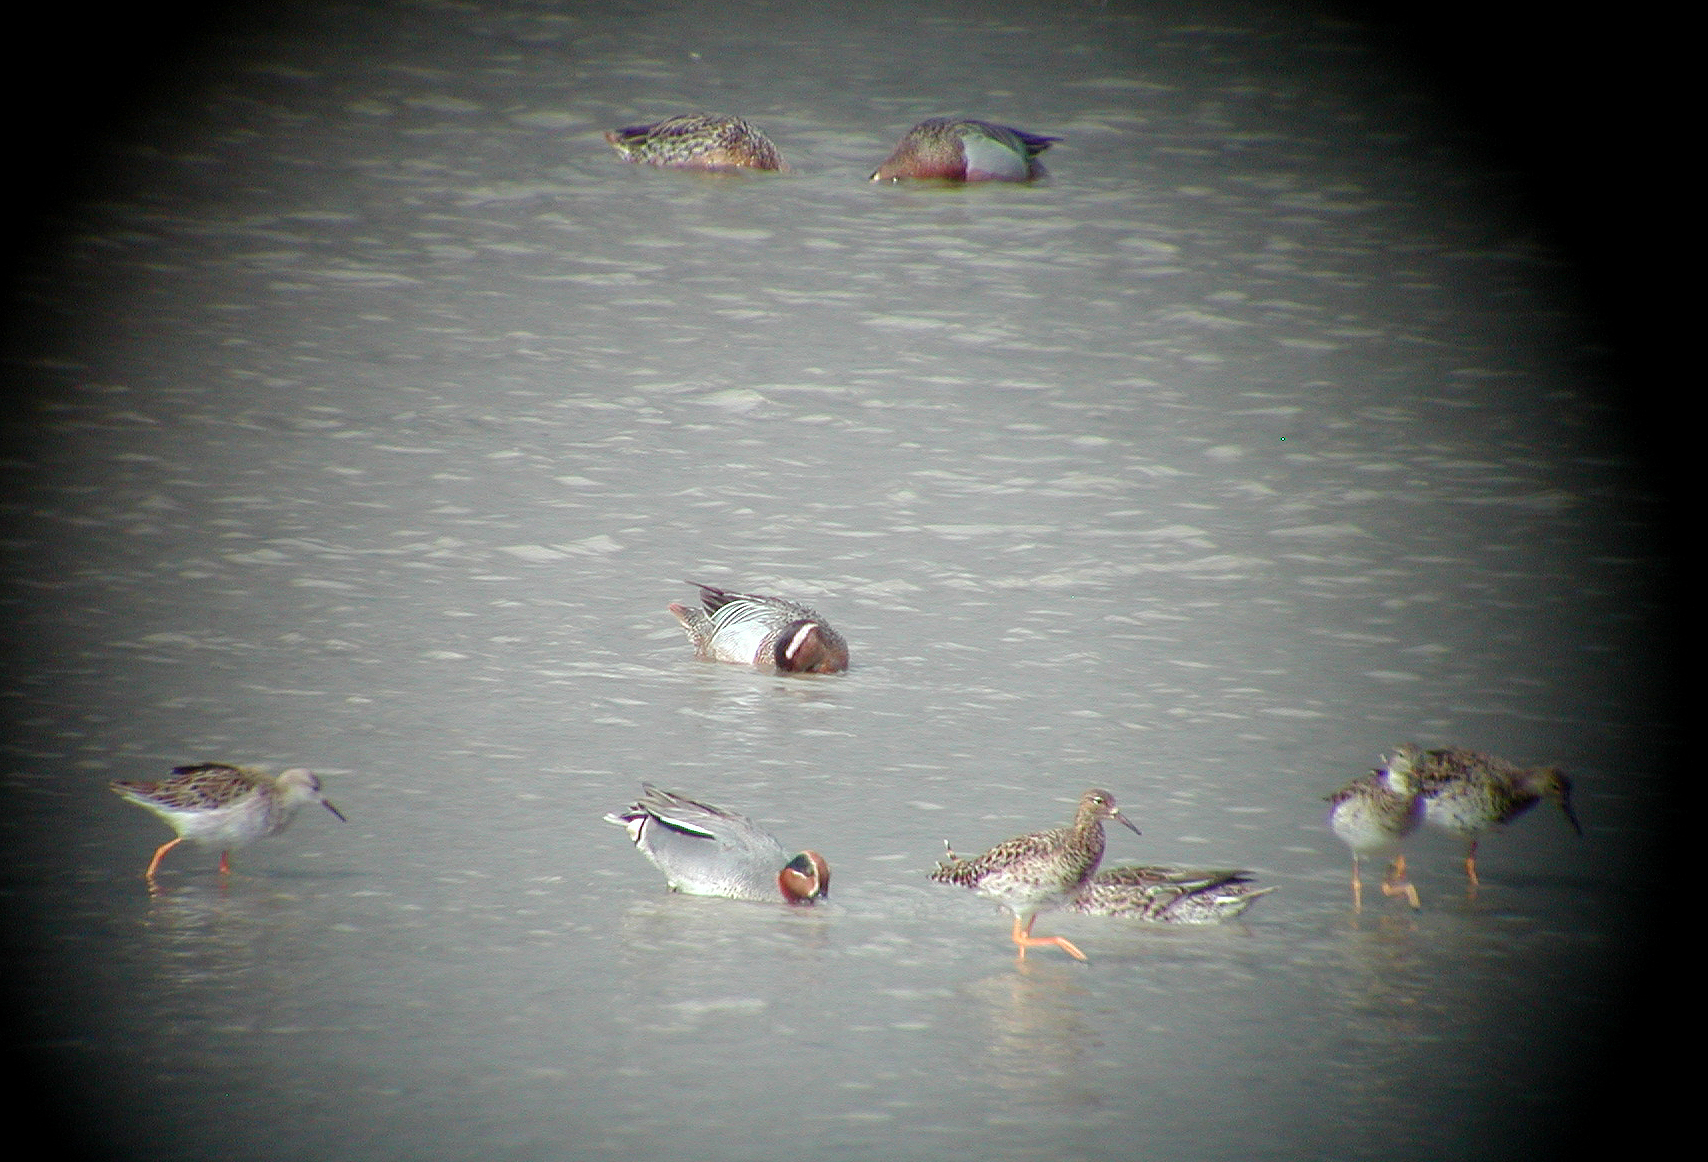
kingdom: Animalia
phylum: Chordata
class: Aves
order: Anseriformes
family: Anatidae
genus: Spatula
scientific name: Spatula querquedula
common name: Garganey
